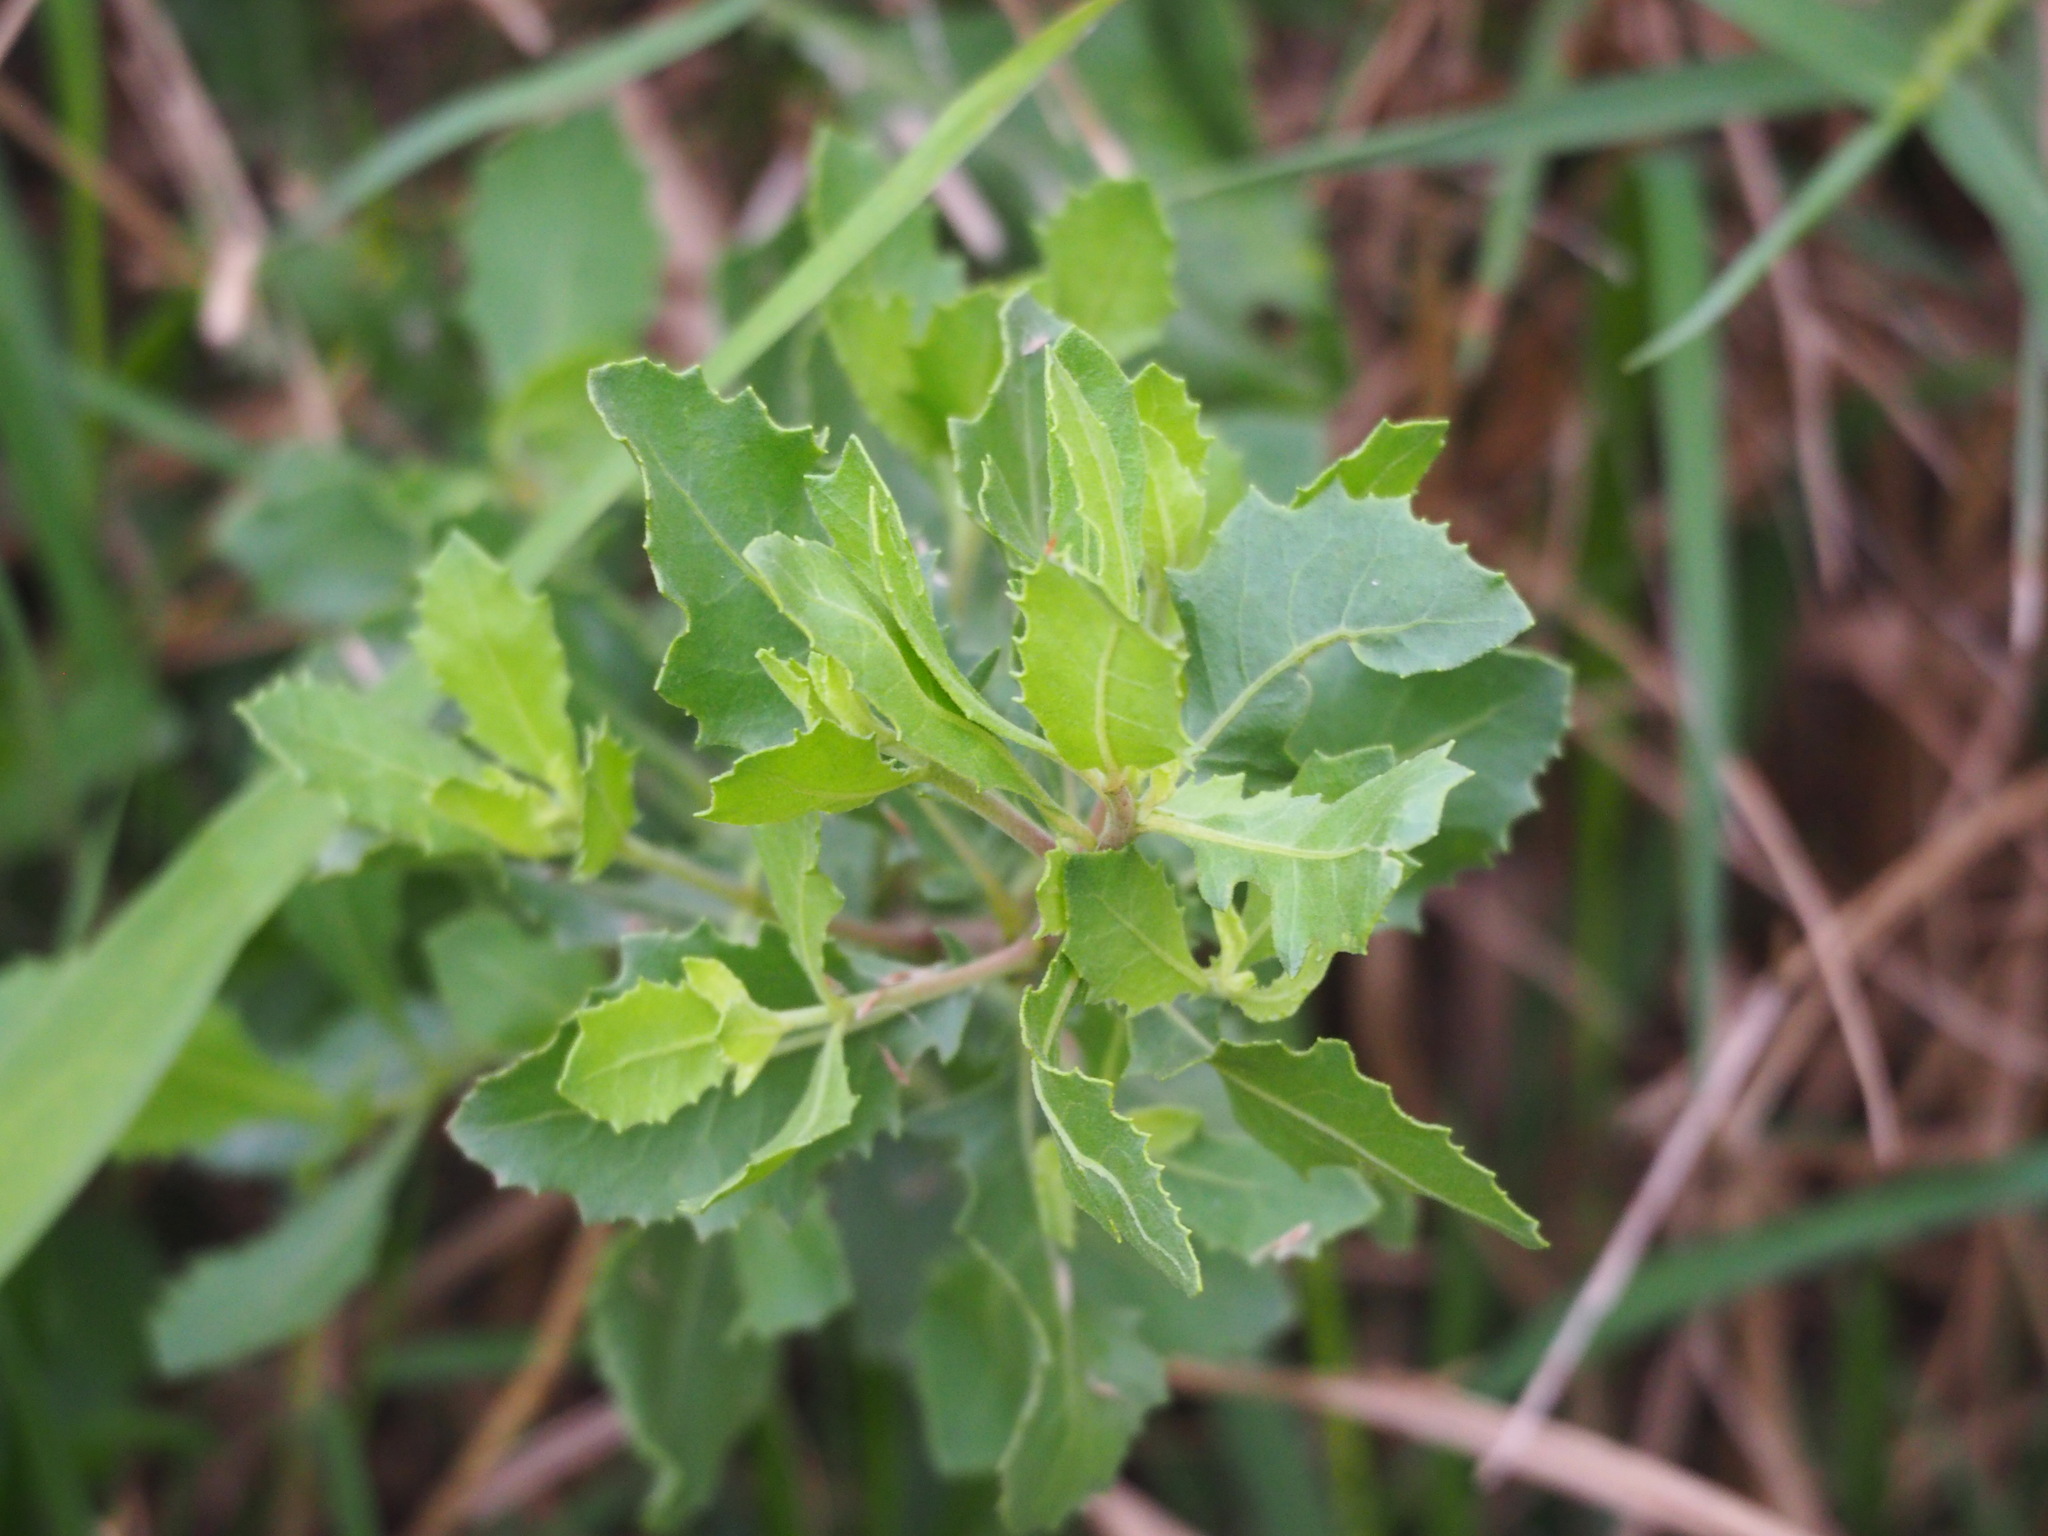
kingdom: Plantae
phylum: Tracheophyta
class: Magnoliopsida
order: Asterales
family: Asteraceae
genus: Pluchea
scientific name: Pluchea indica
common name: Indian fleabane
